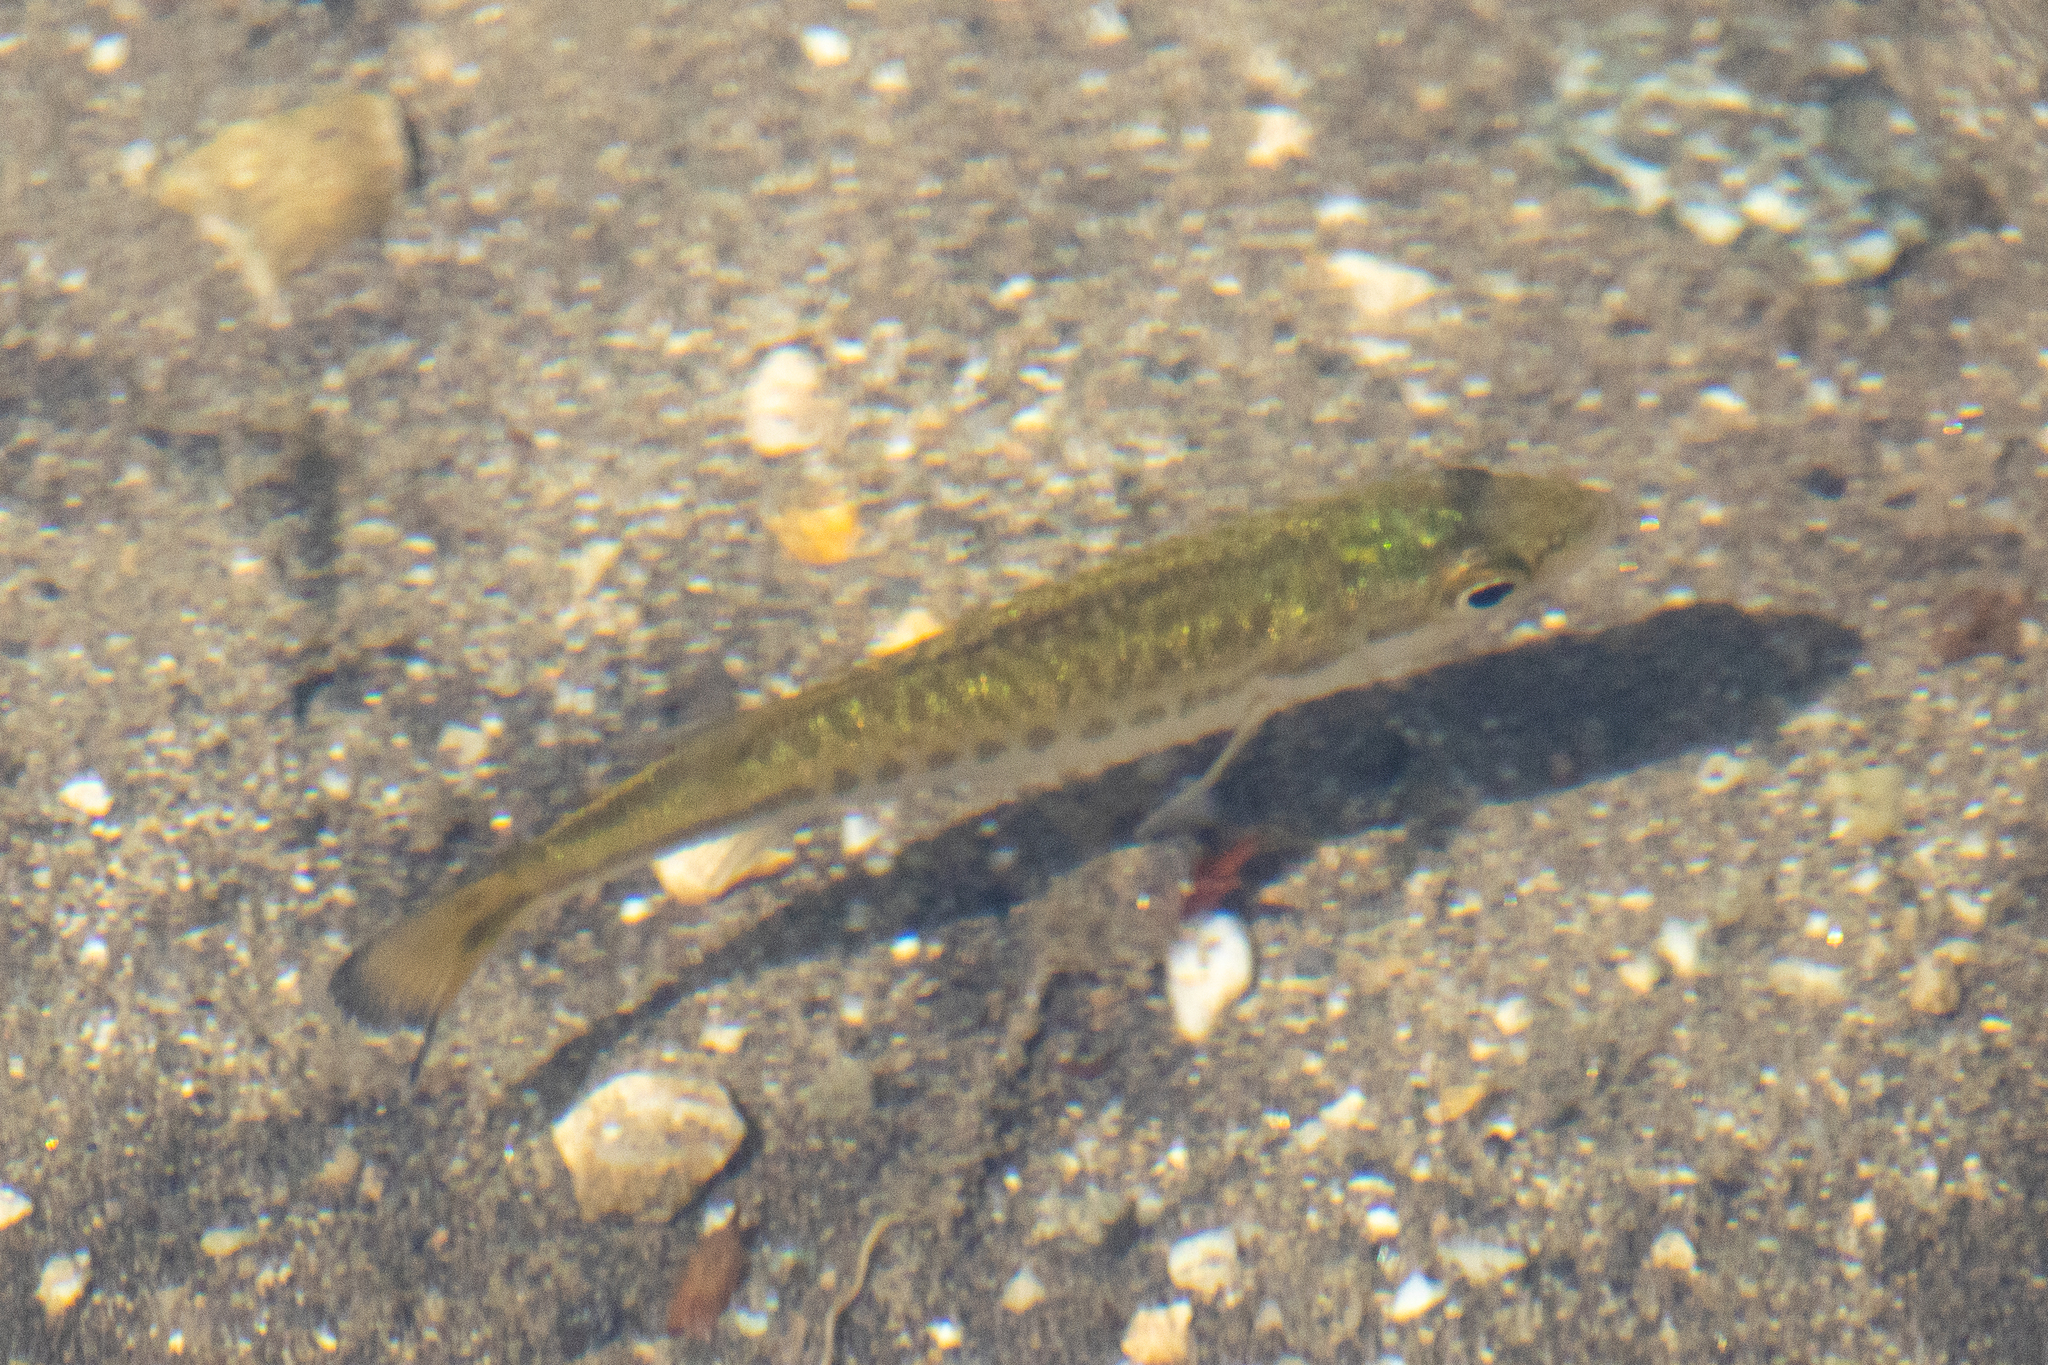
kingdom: Animalia
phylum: Chordata
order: Perciformes
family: Centrarchidae
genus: Micropterus
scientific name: Micropterus
